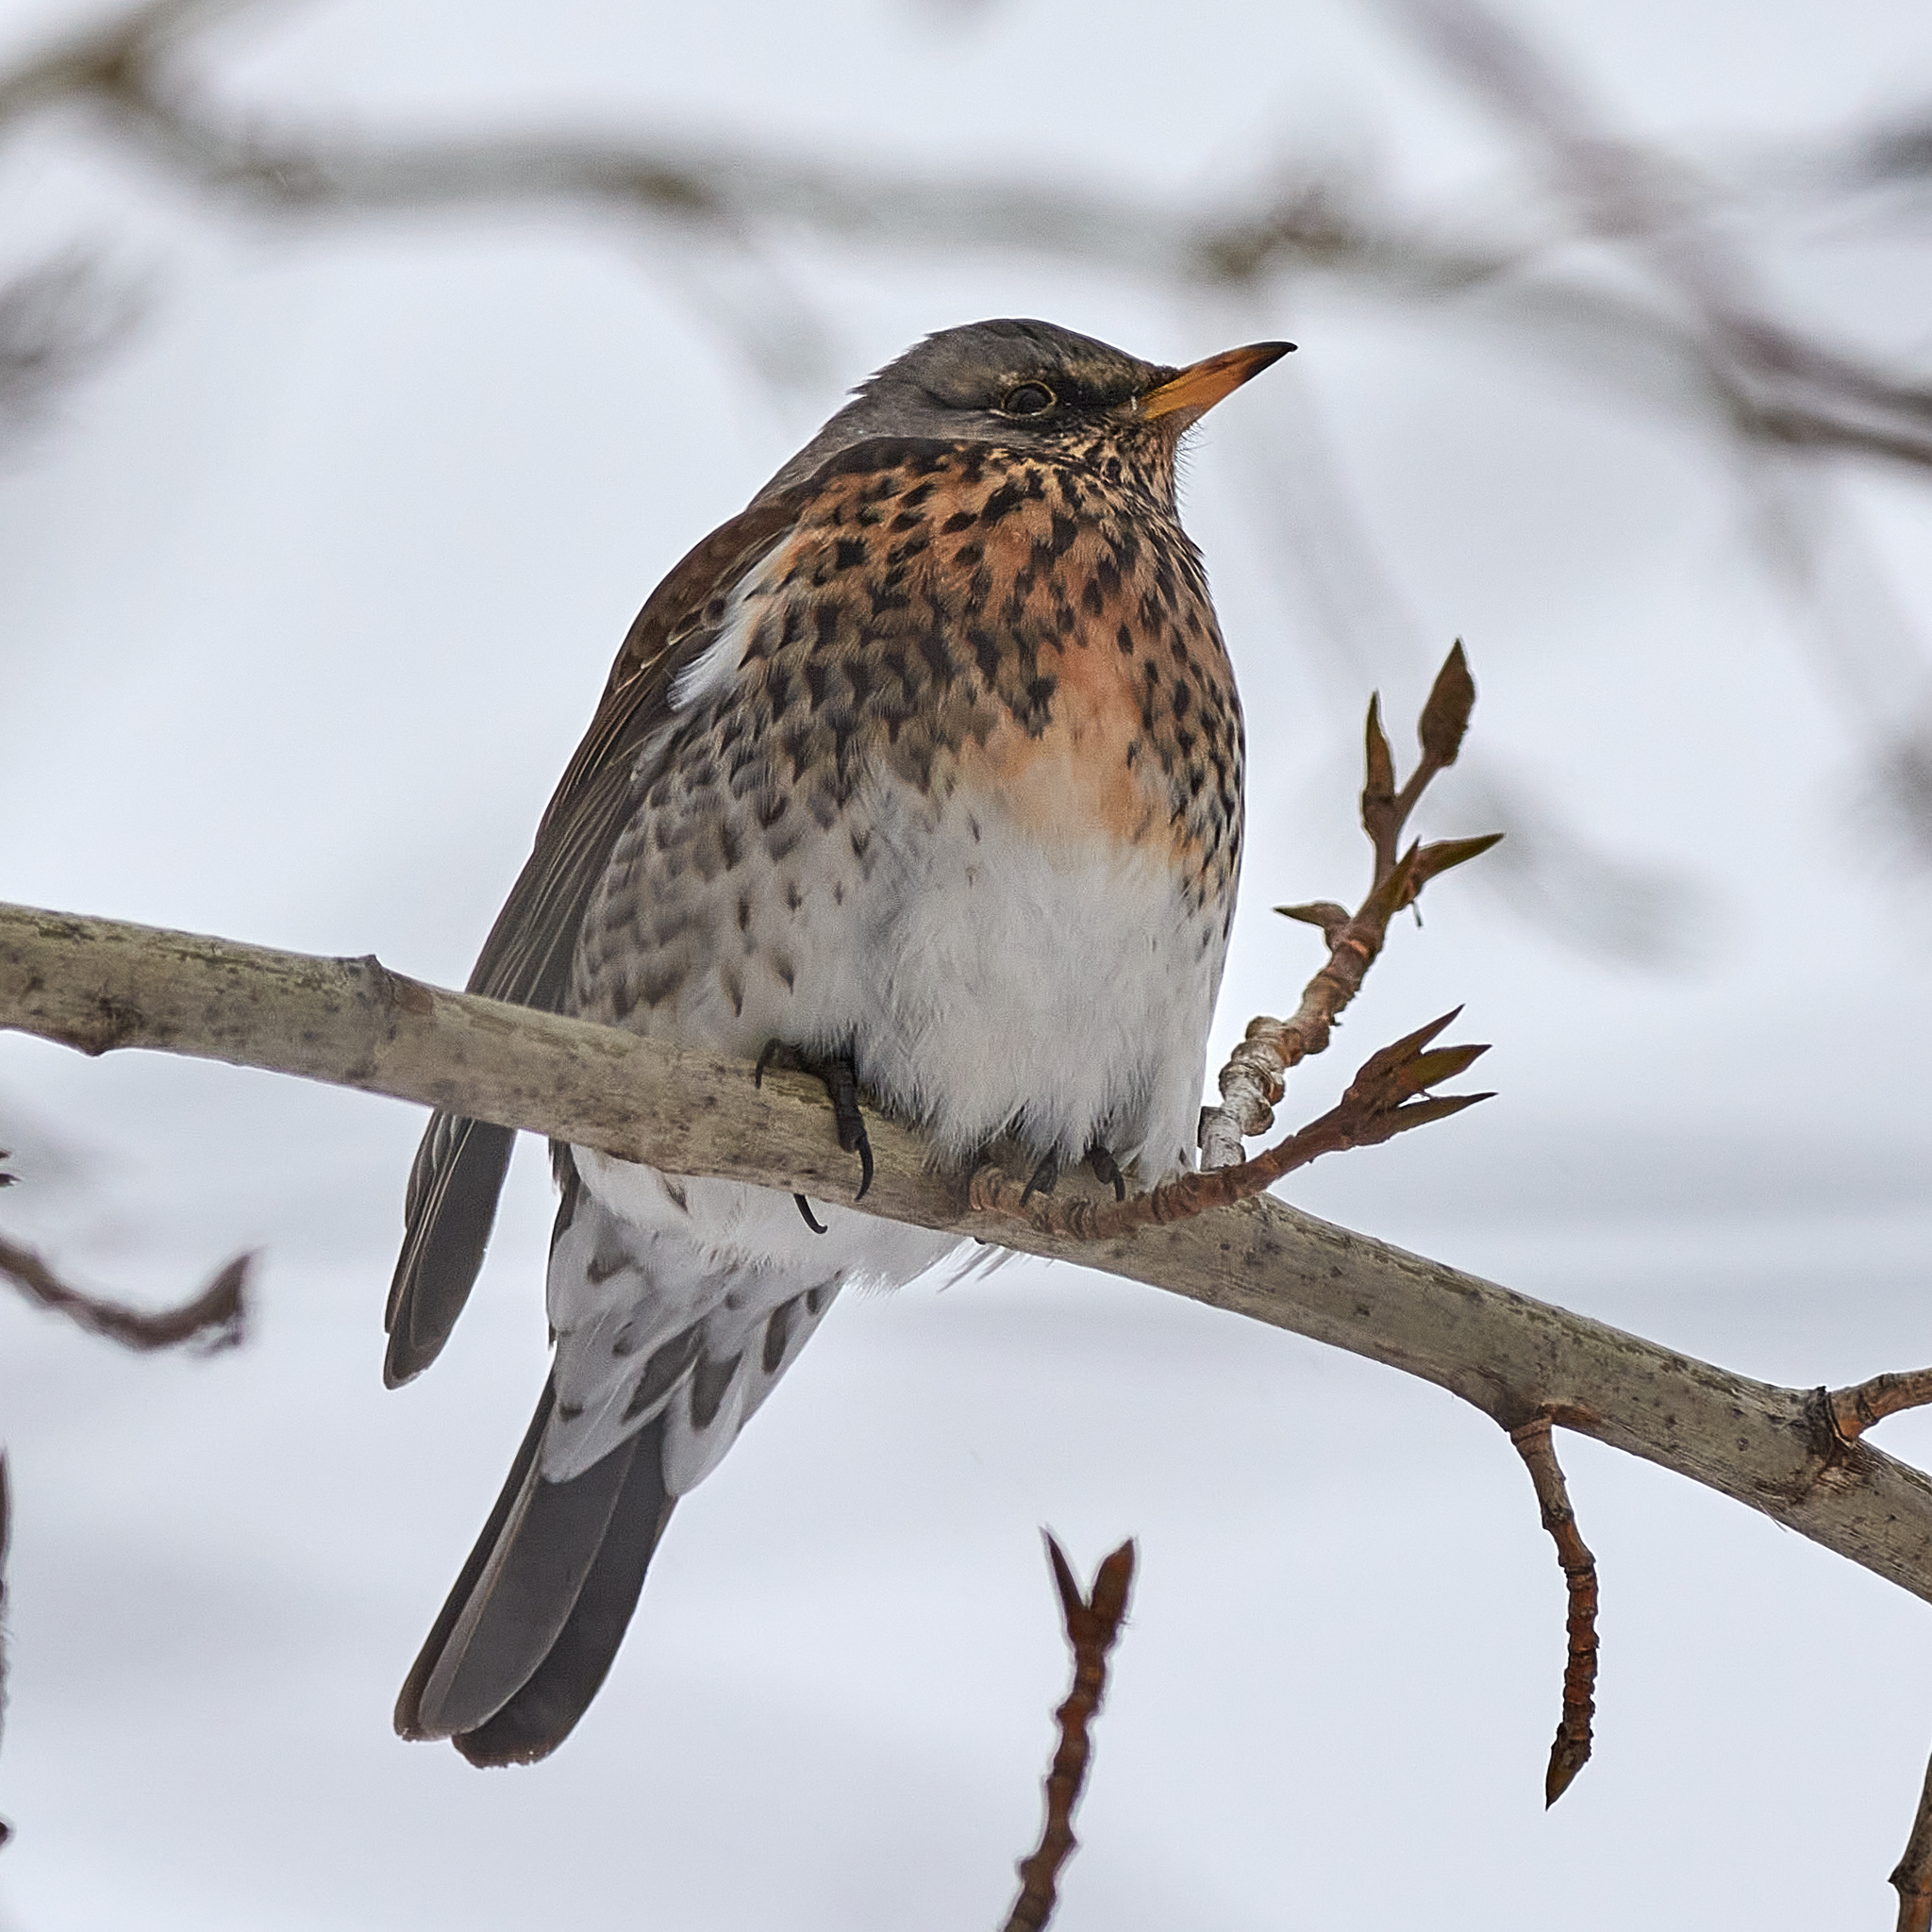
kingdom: Animalia
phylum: Chordata
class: Aves
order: Passeriformes
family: Turdidae
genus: Turdus
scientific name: Turdus pilaris
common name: Fieldfare
